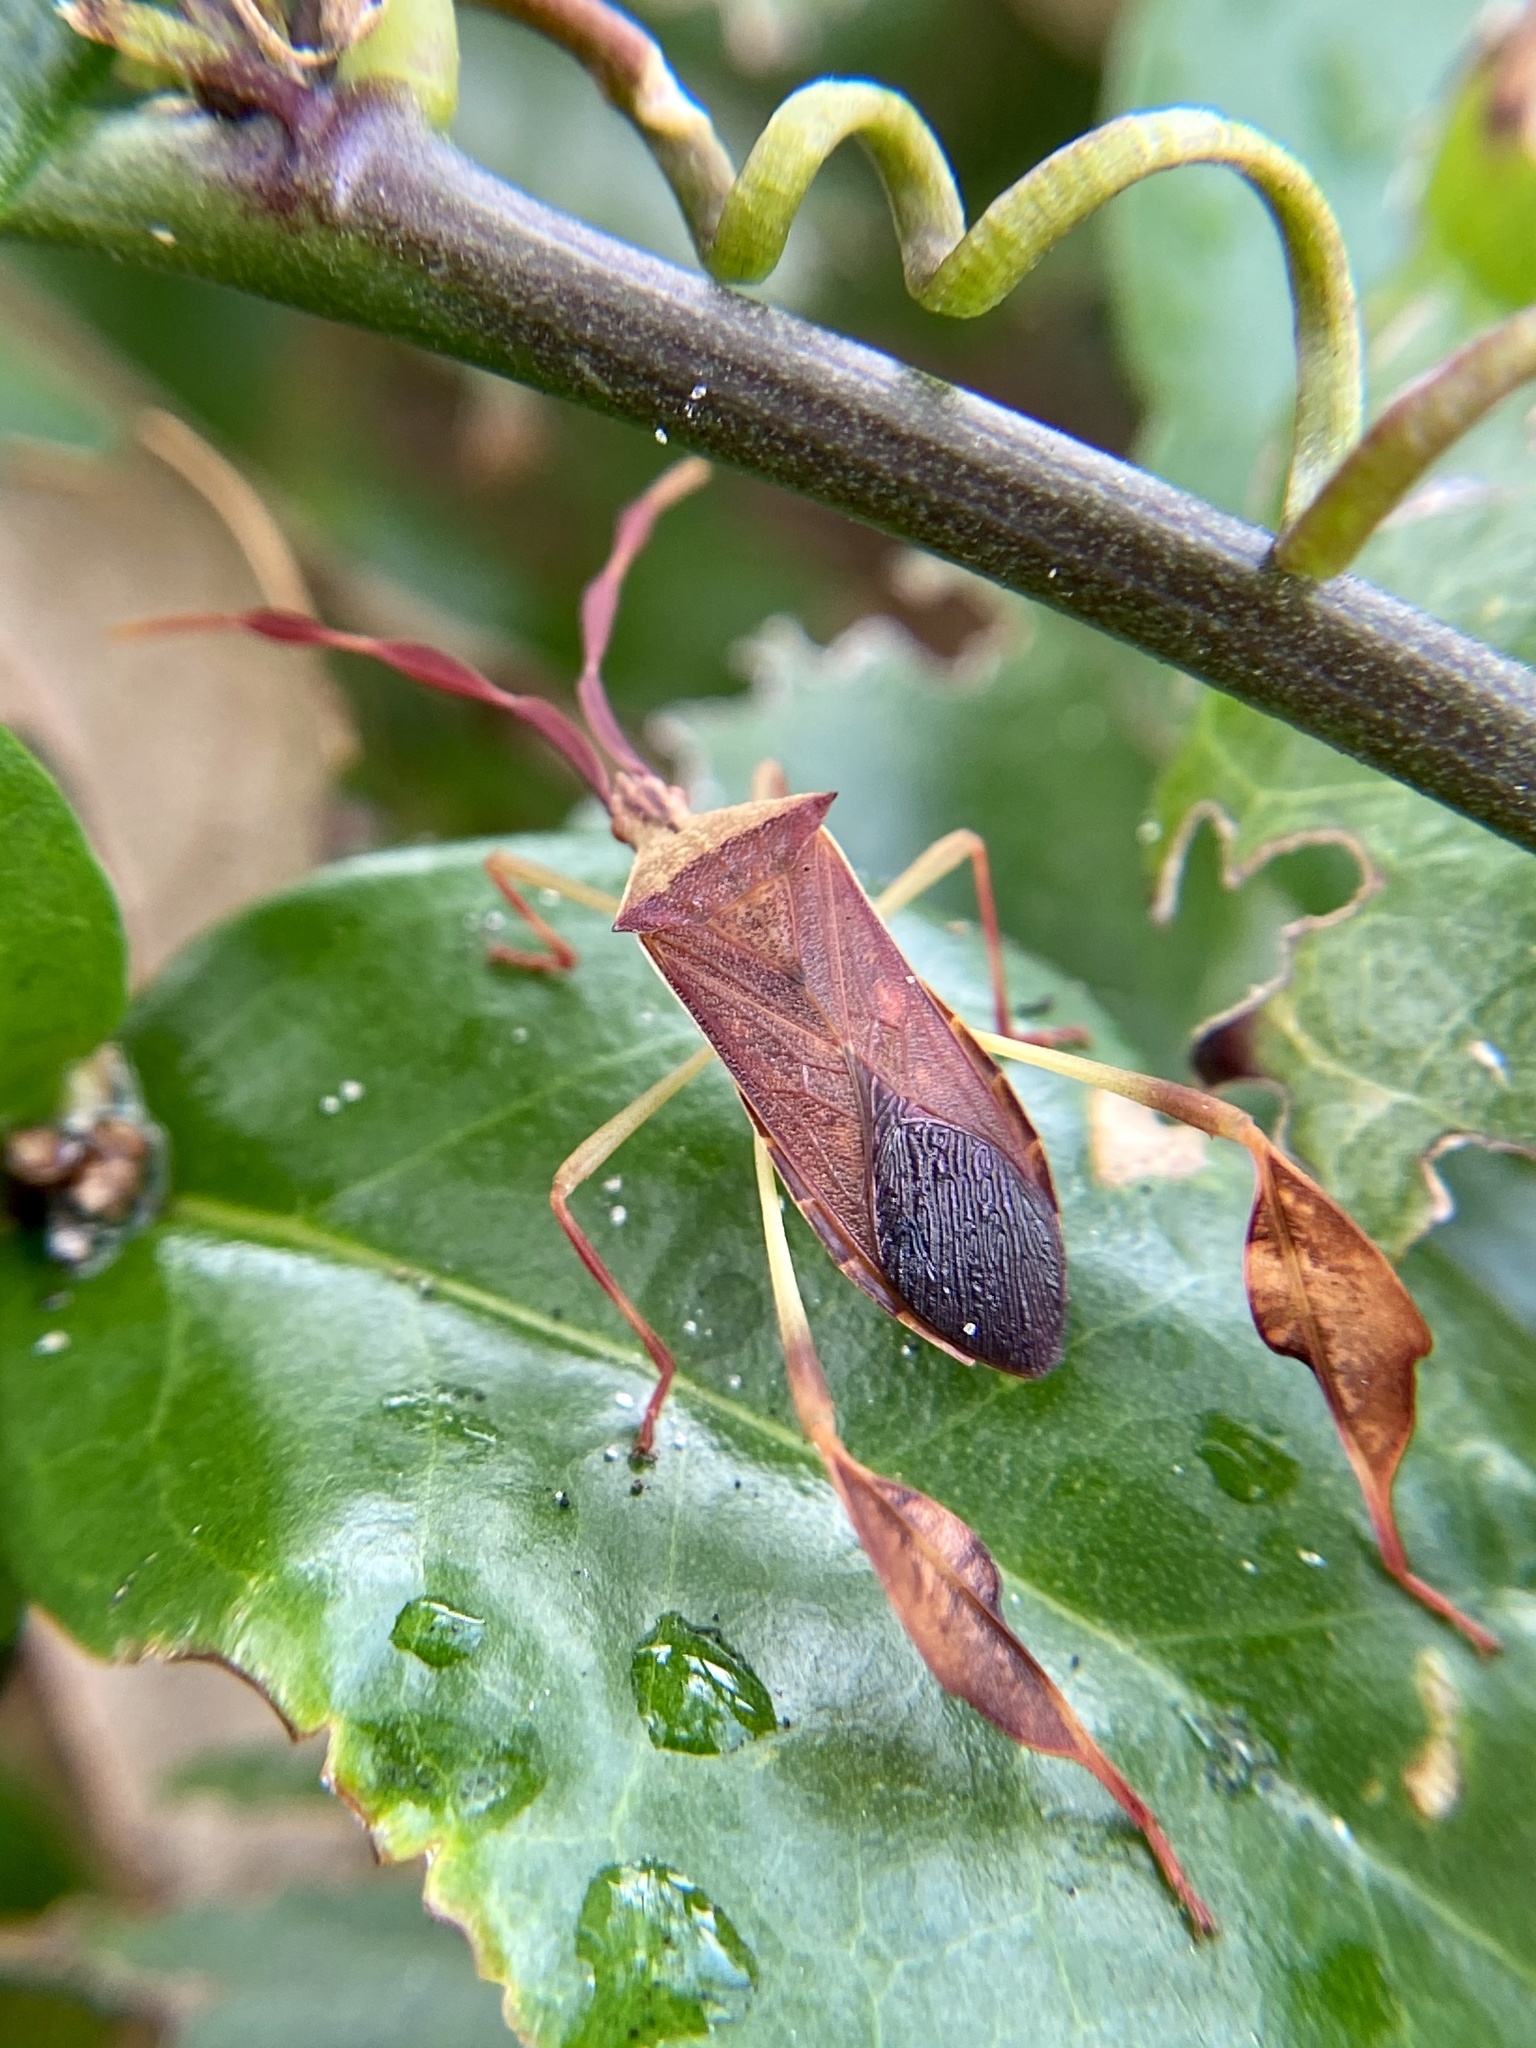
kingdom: Animalia
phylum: Arthropoda
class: Insecta
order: Hemiptera
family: Coreidae
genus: Chondrocera
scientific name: Chondrocera laticornis
